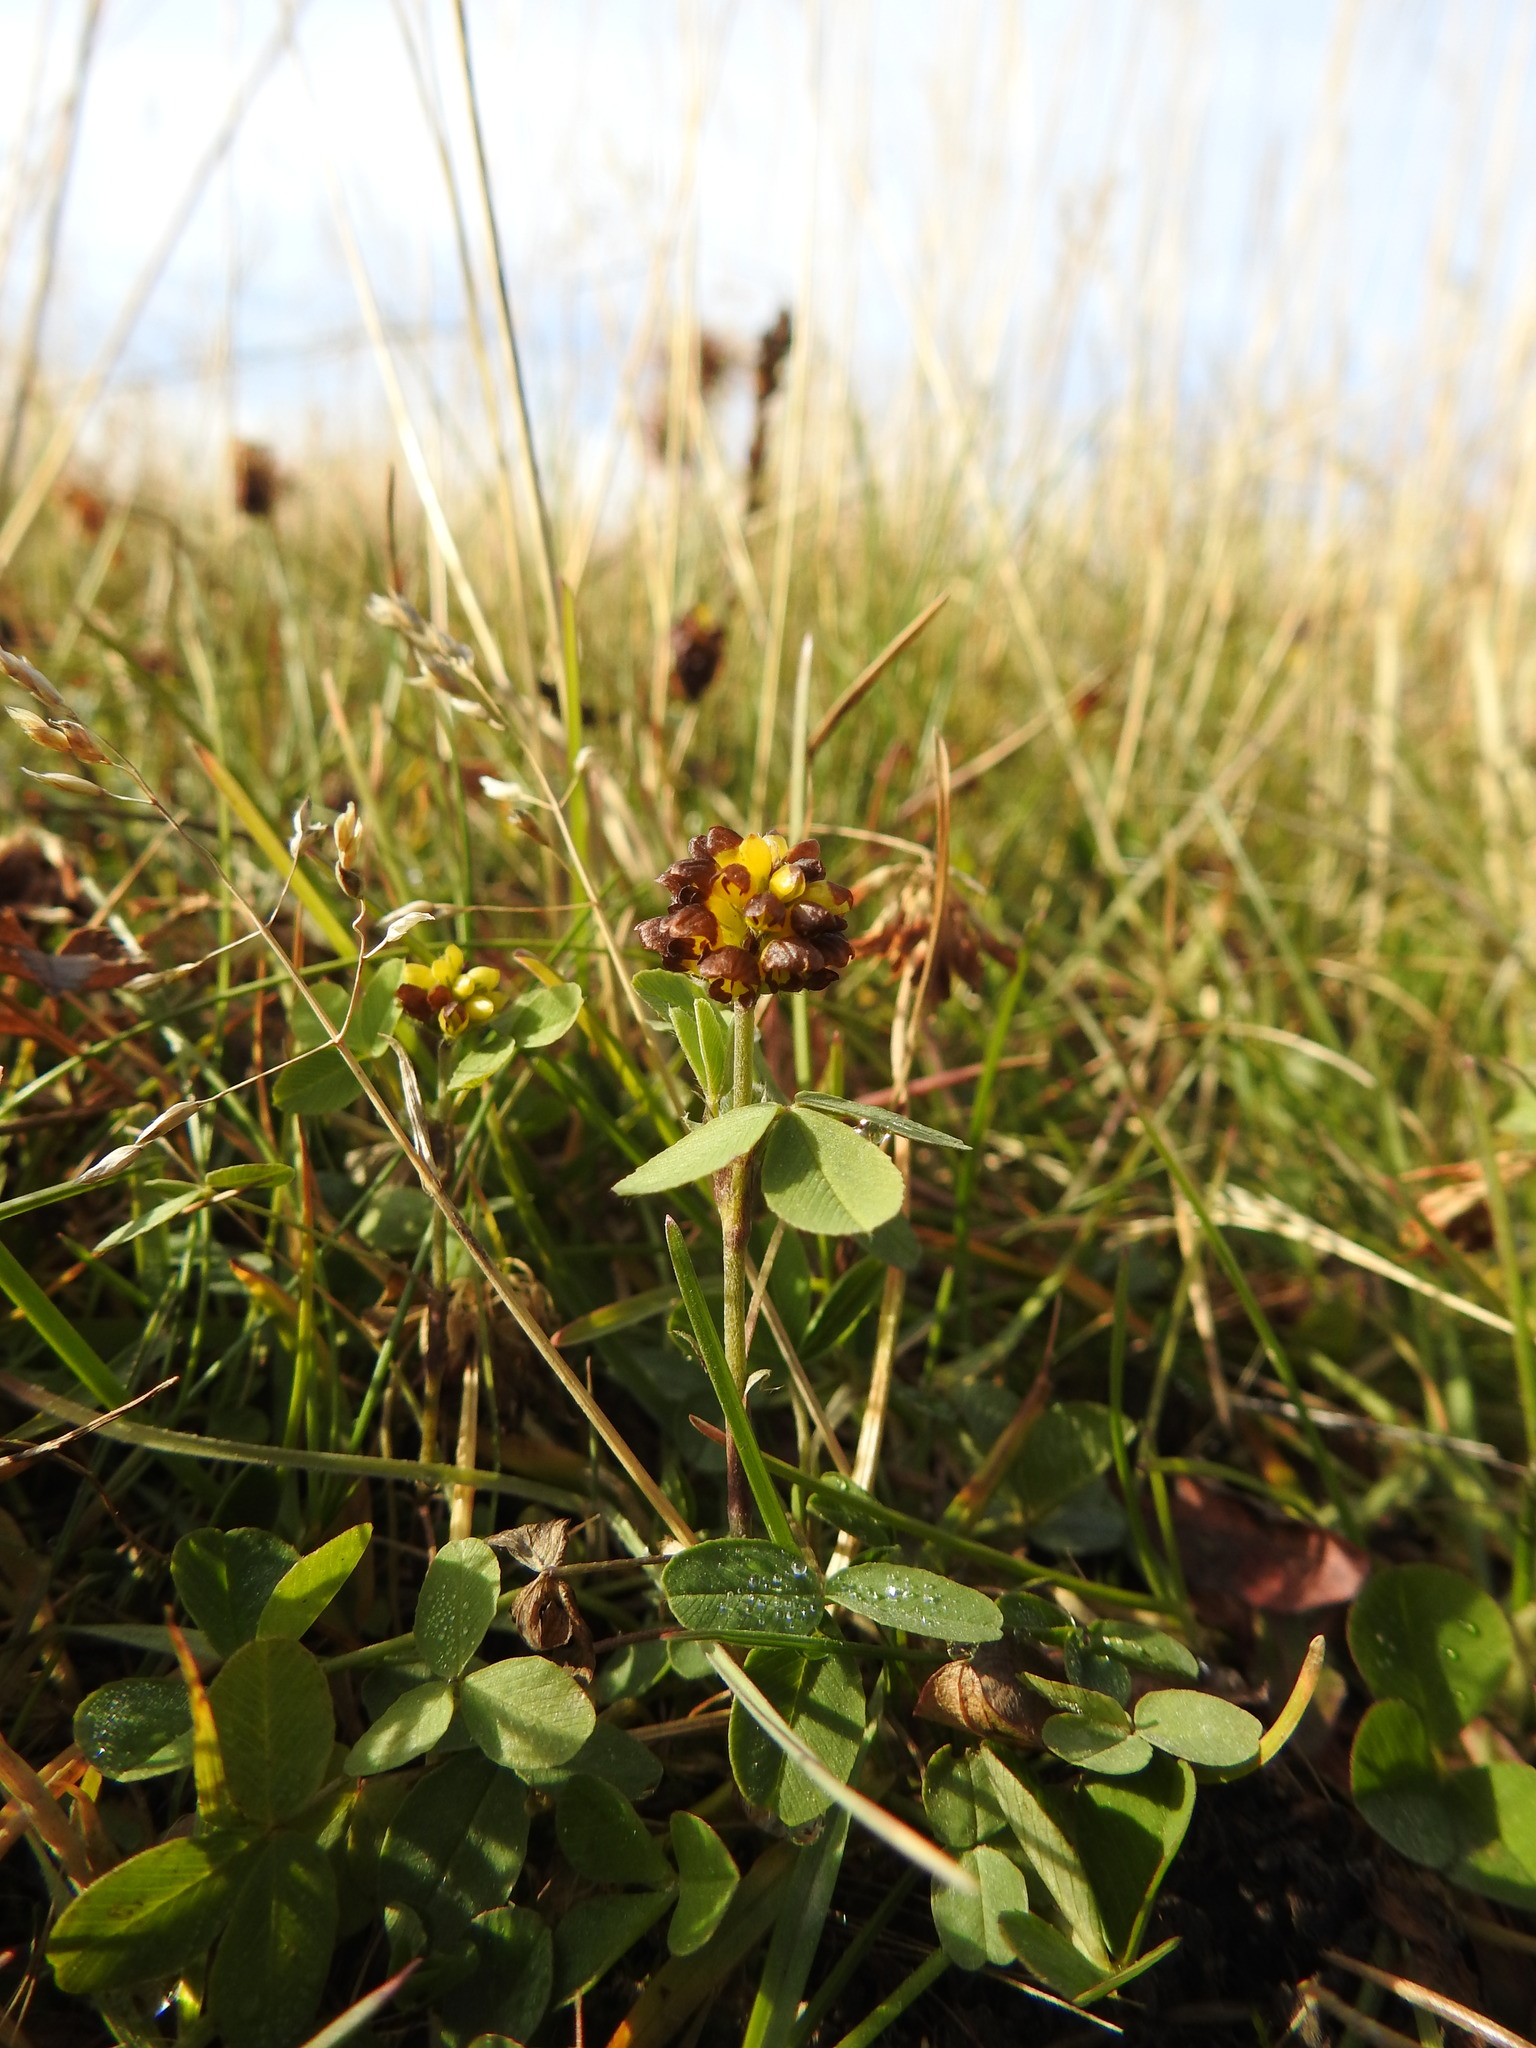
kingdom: Plantae
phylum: Tracheophyta
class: Magnoliopsida
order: Fabales
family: Fabaceae
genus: Trifolium
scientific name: Trifolium spadiceum
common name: Brown moor clover
